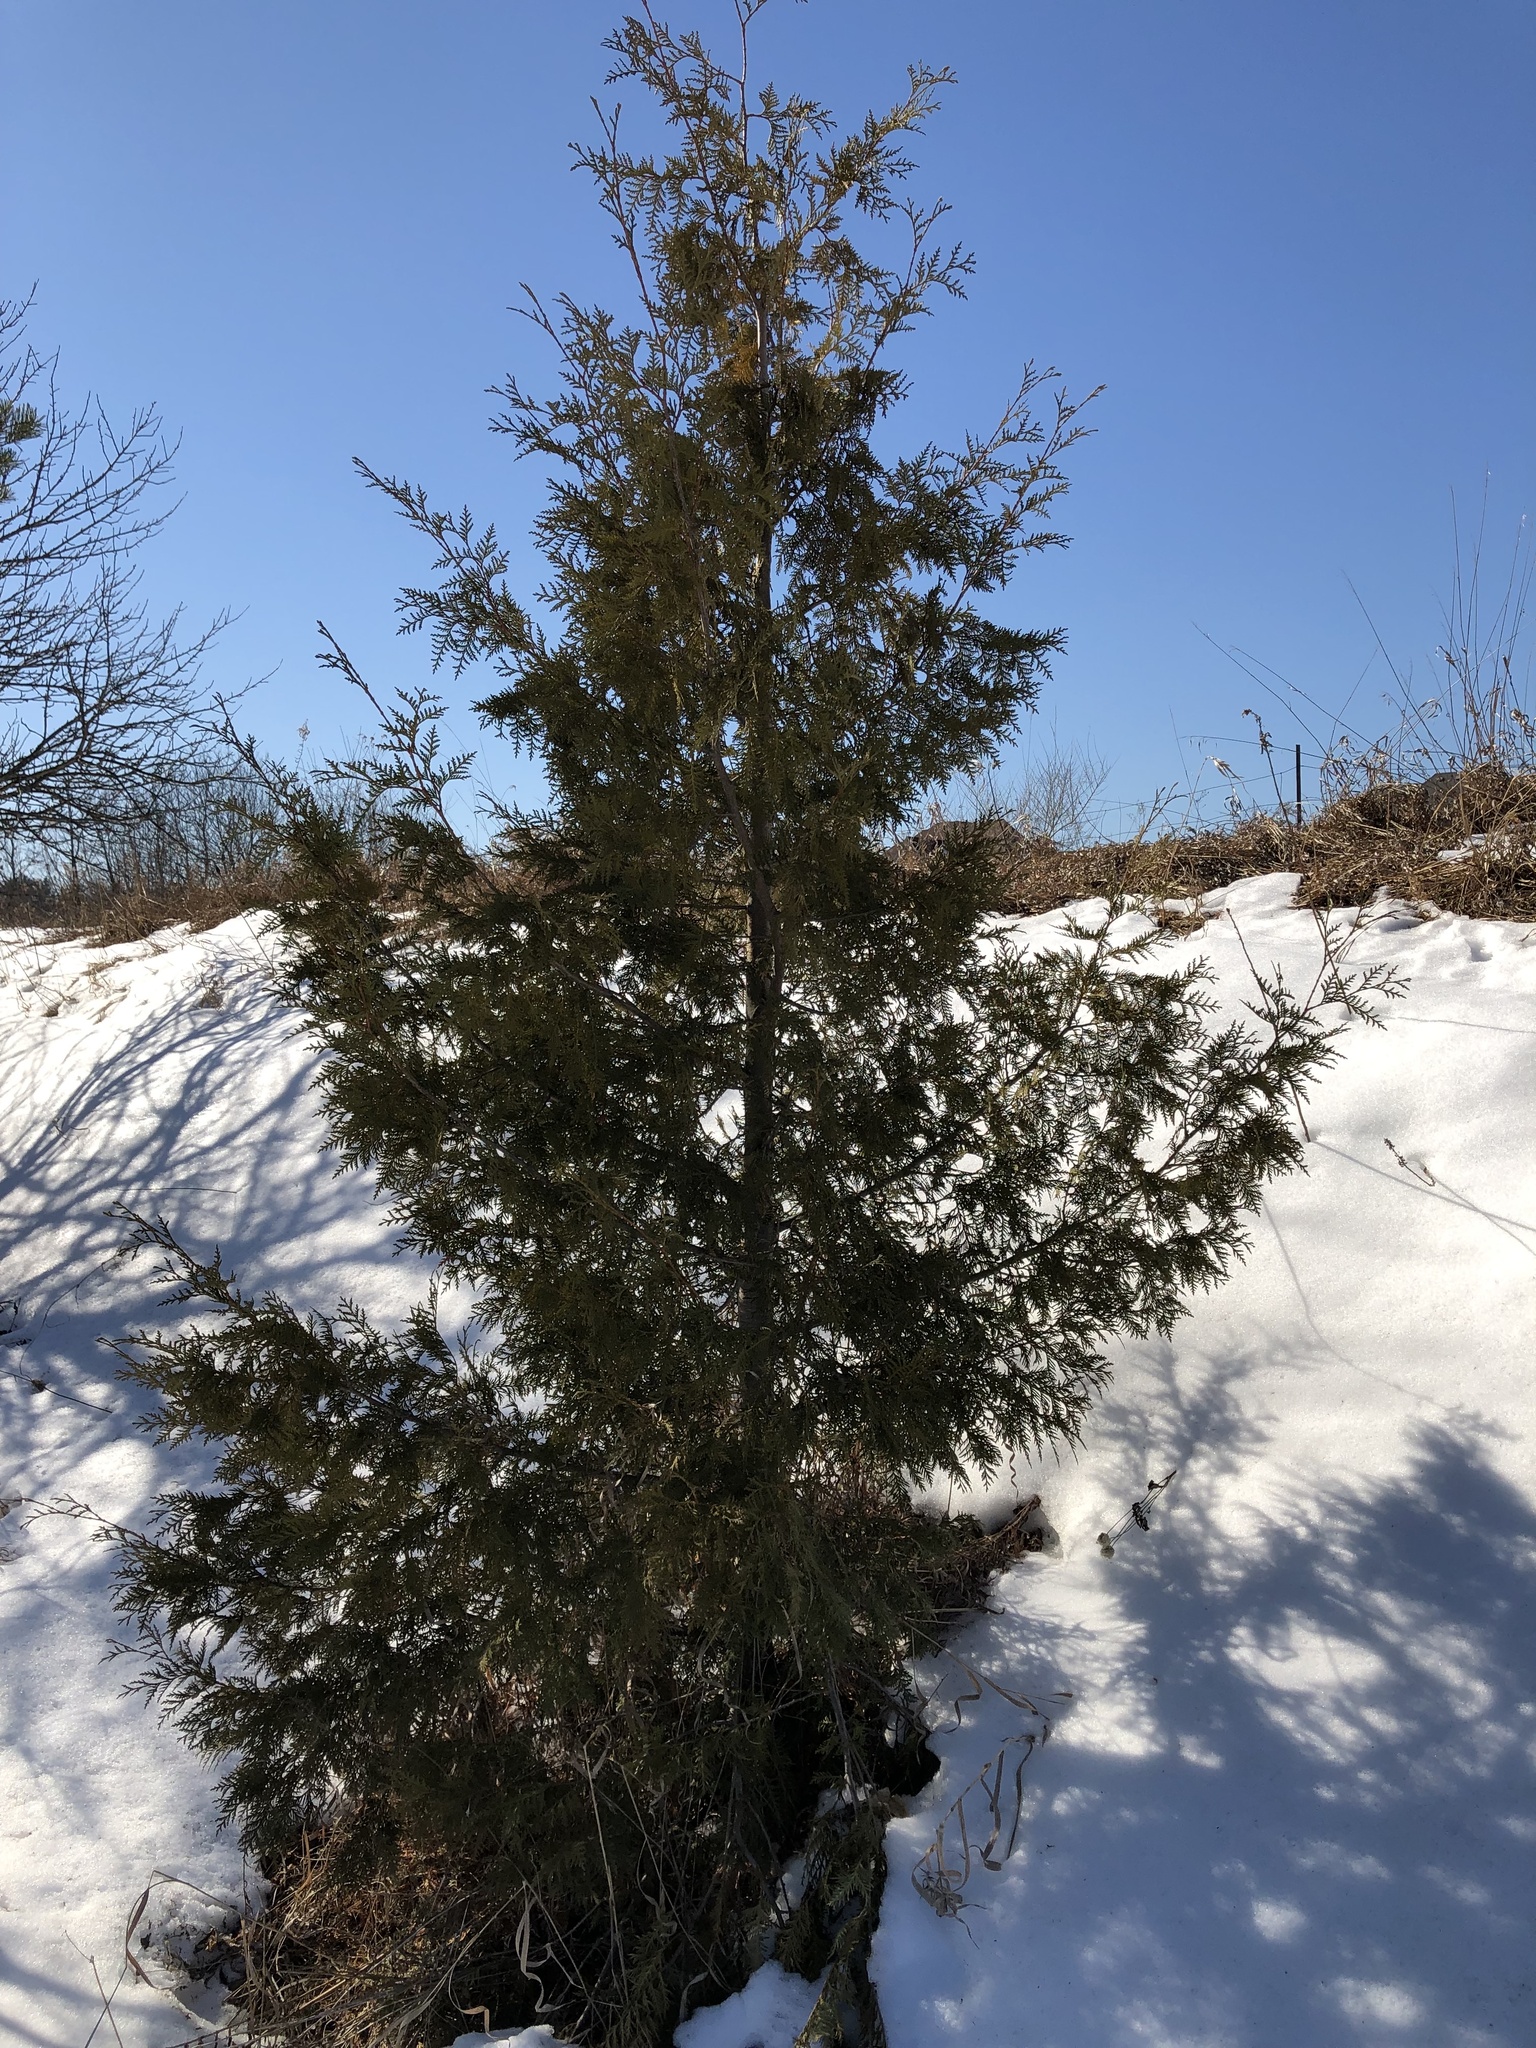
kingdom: Plantae
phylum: Tracheophyta
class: Pinopsida
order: Pinales
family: Cupressaceae
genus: Thuja
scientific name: Thuja occidentalis
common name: Northern white-cedar
